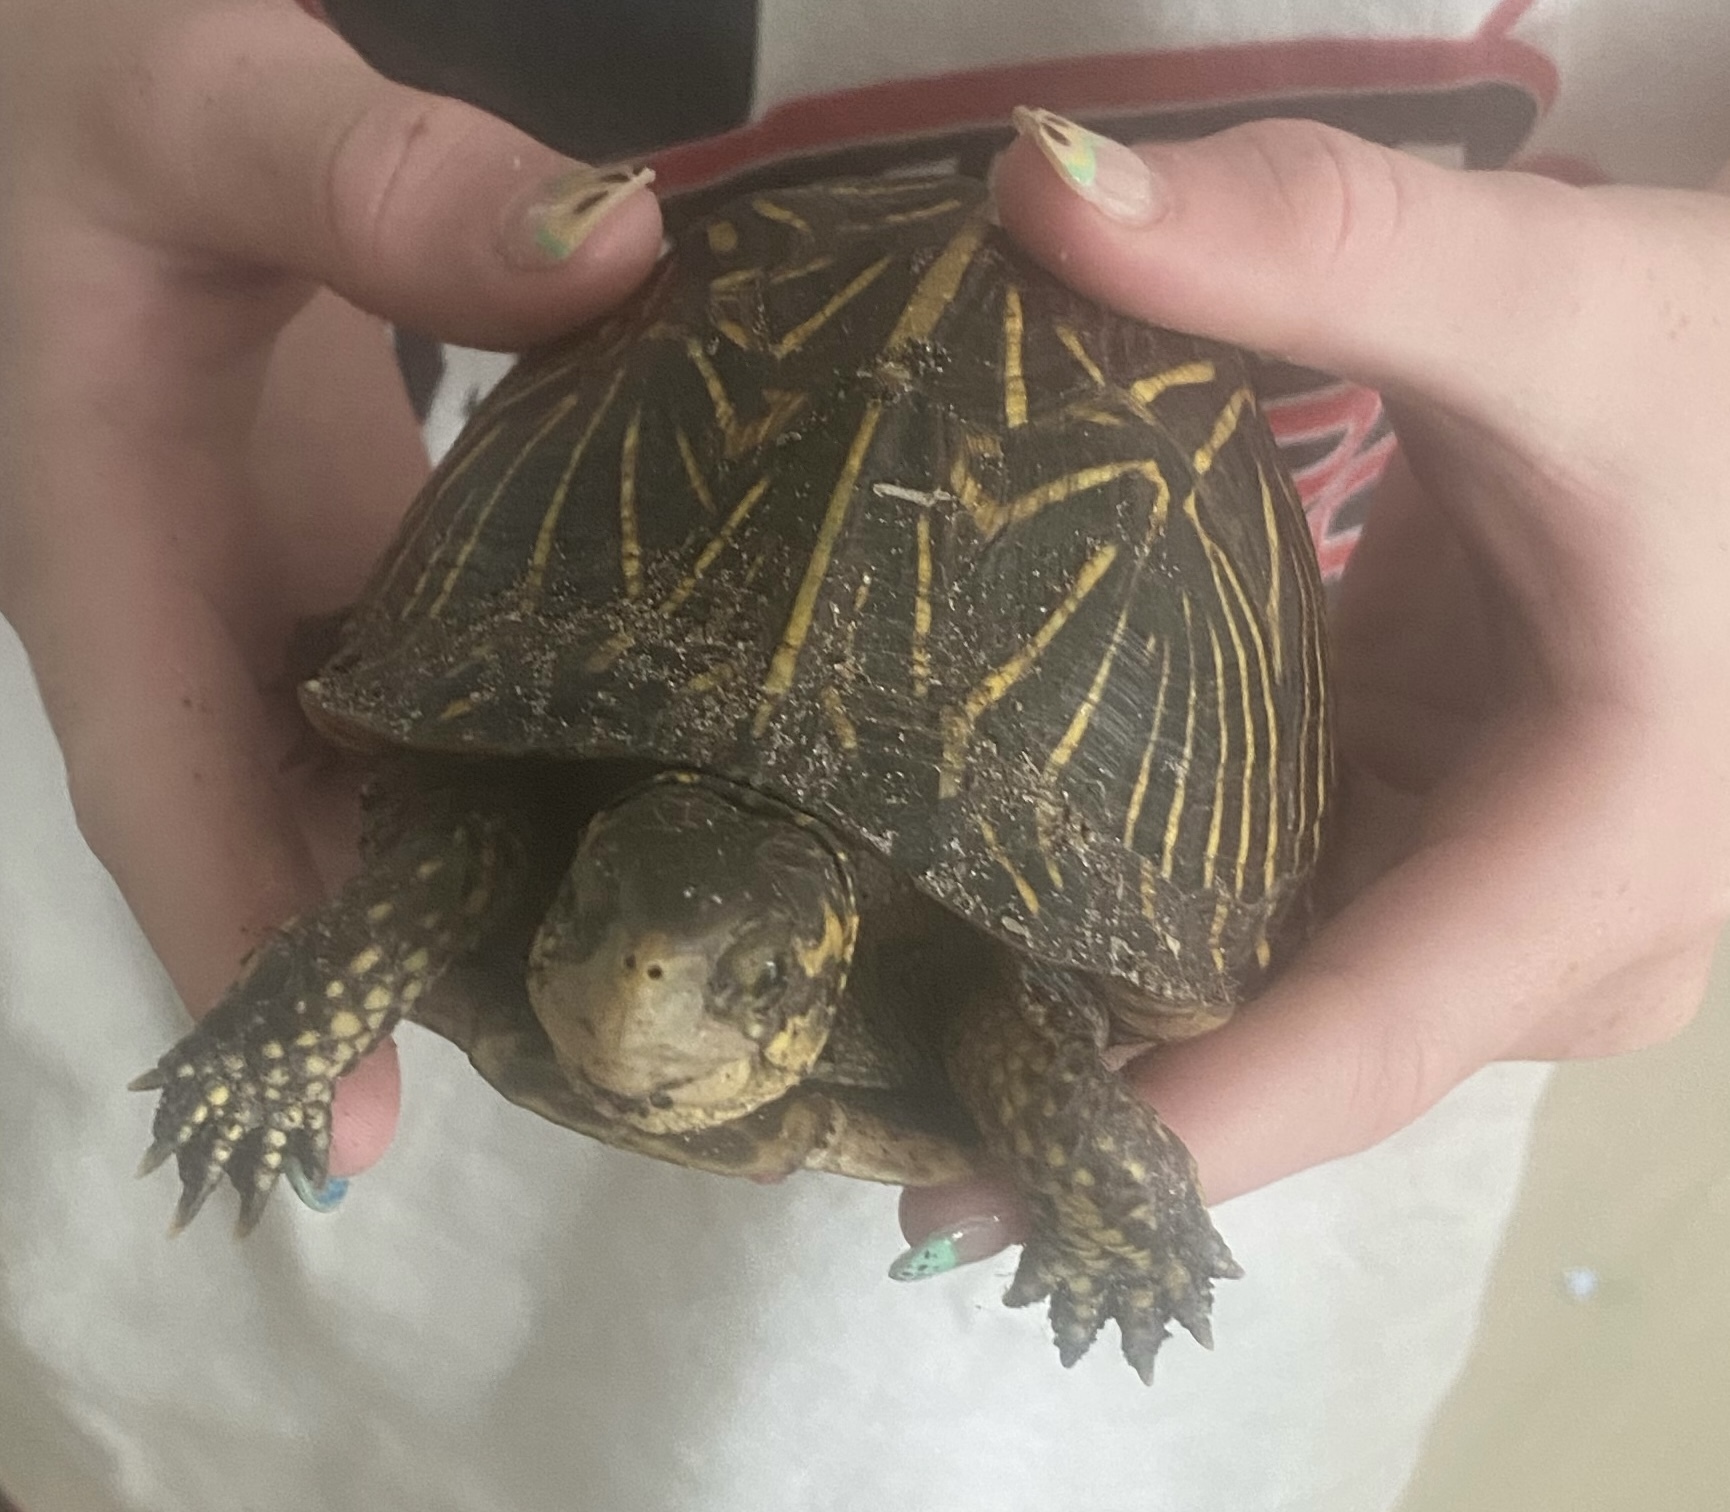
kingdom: Animalia
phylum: Chordata
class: Testudines
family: Emydidae
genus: Terrapene
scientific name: Terrapene carolina
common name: Common box turtle
